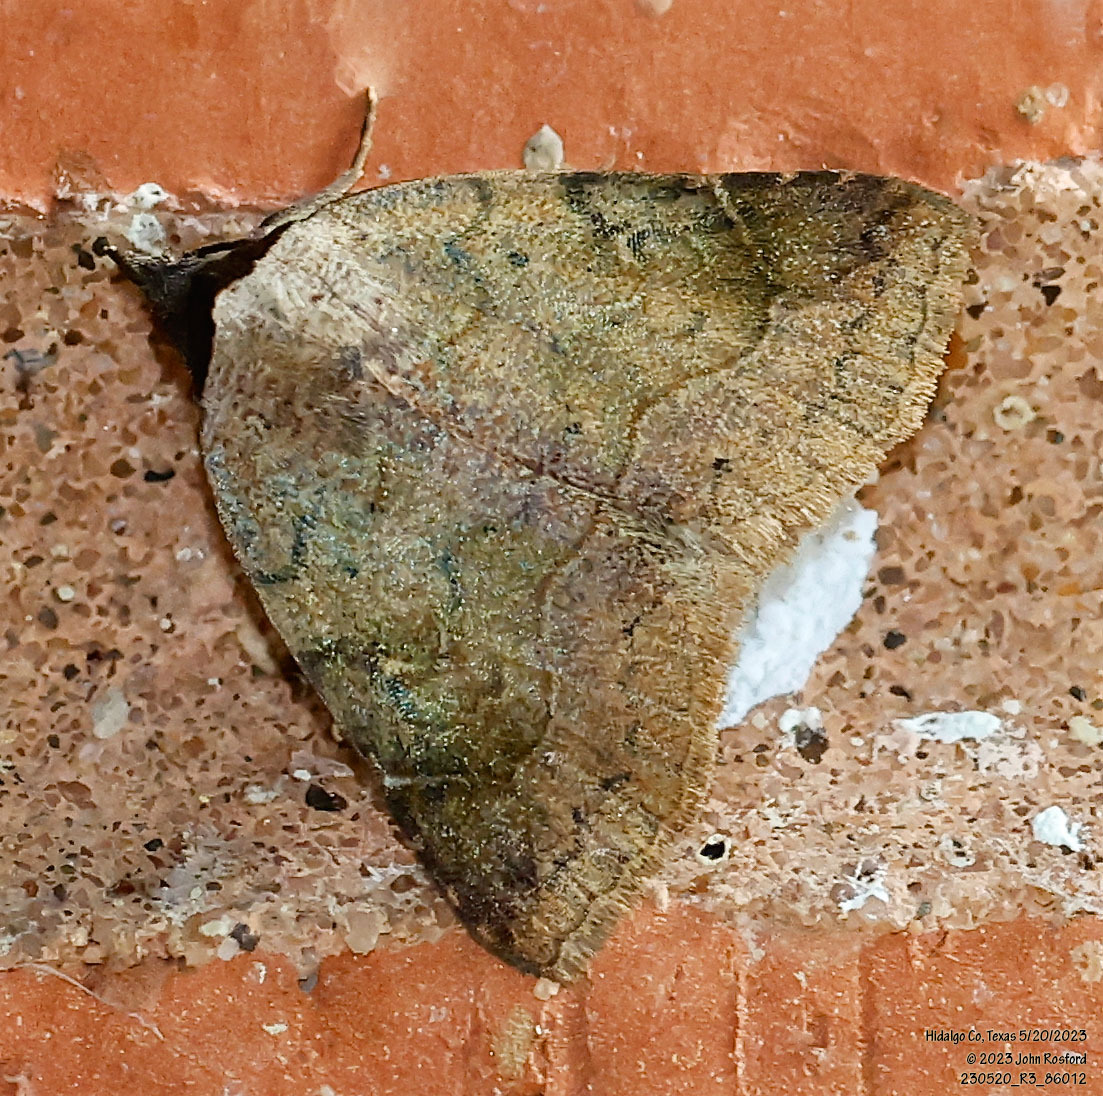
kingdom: Animalia
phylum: Arthropoda
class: Insecta
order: Lepidoptera
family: Erebidae
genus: Isogona
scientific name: Isogona texana
